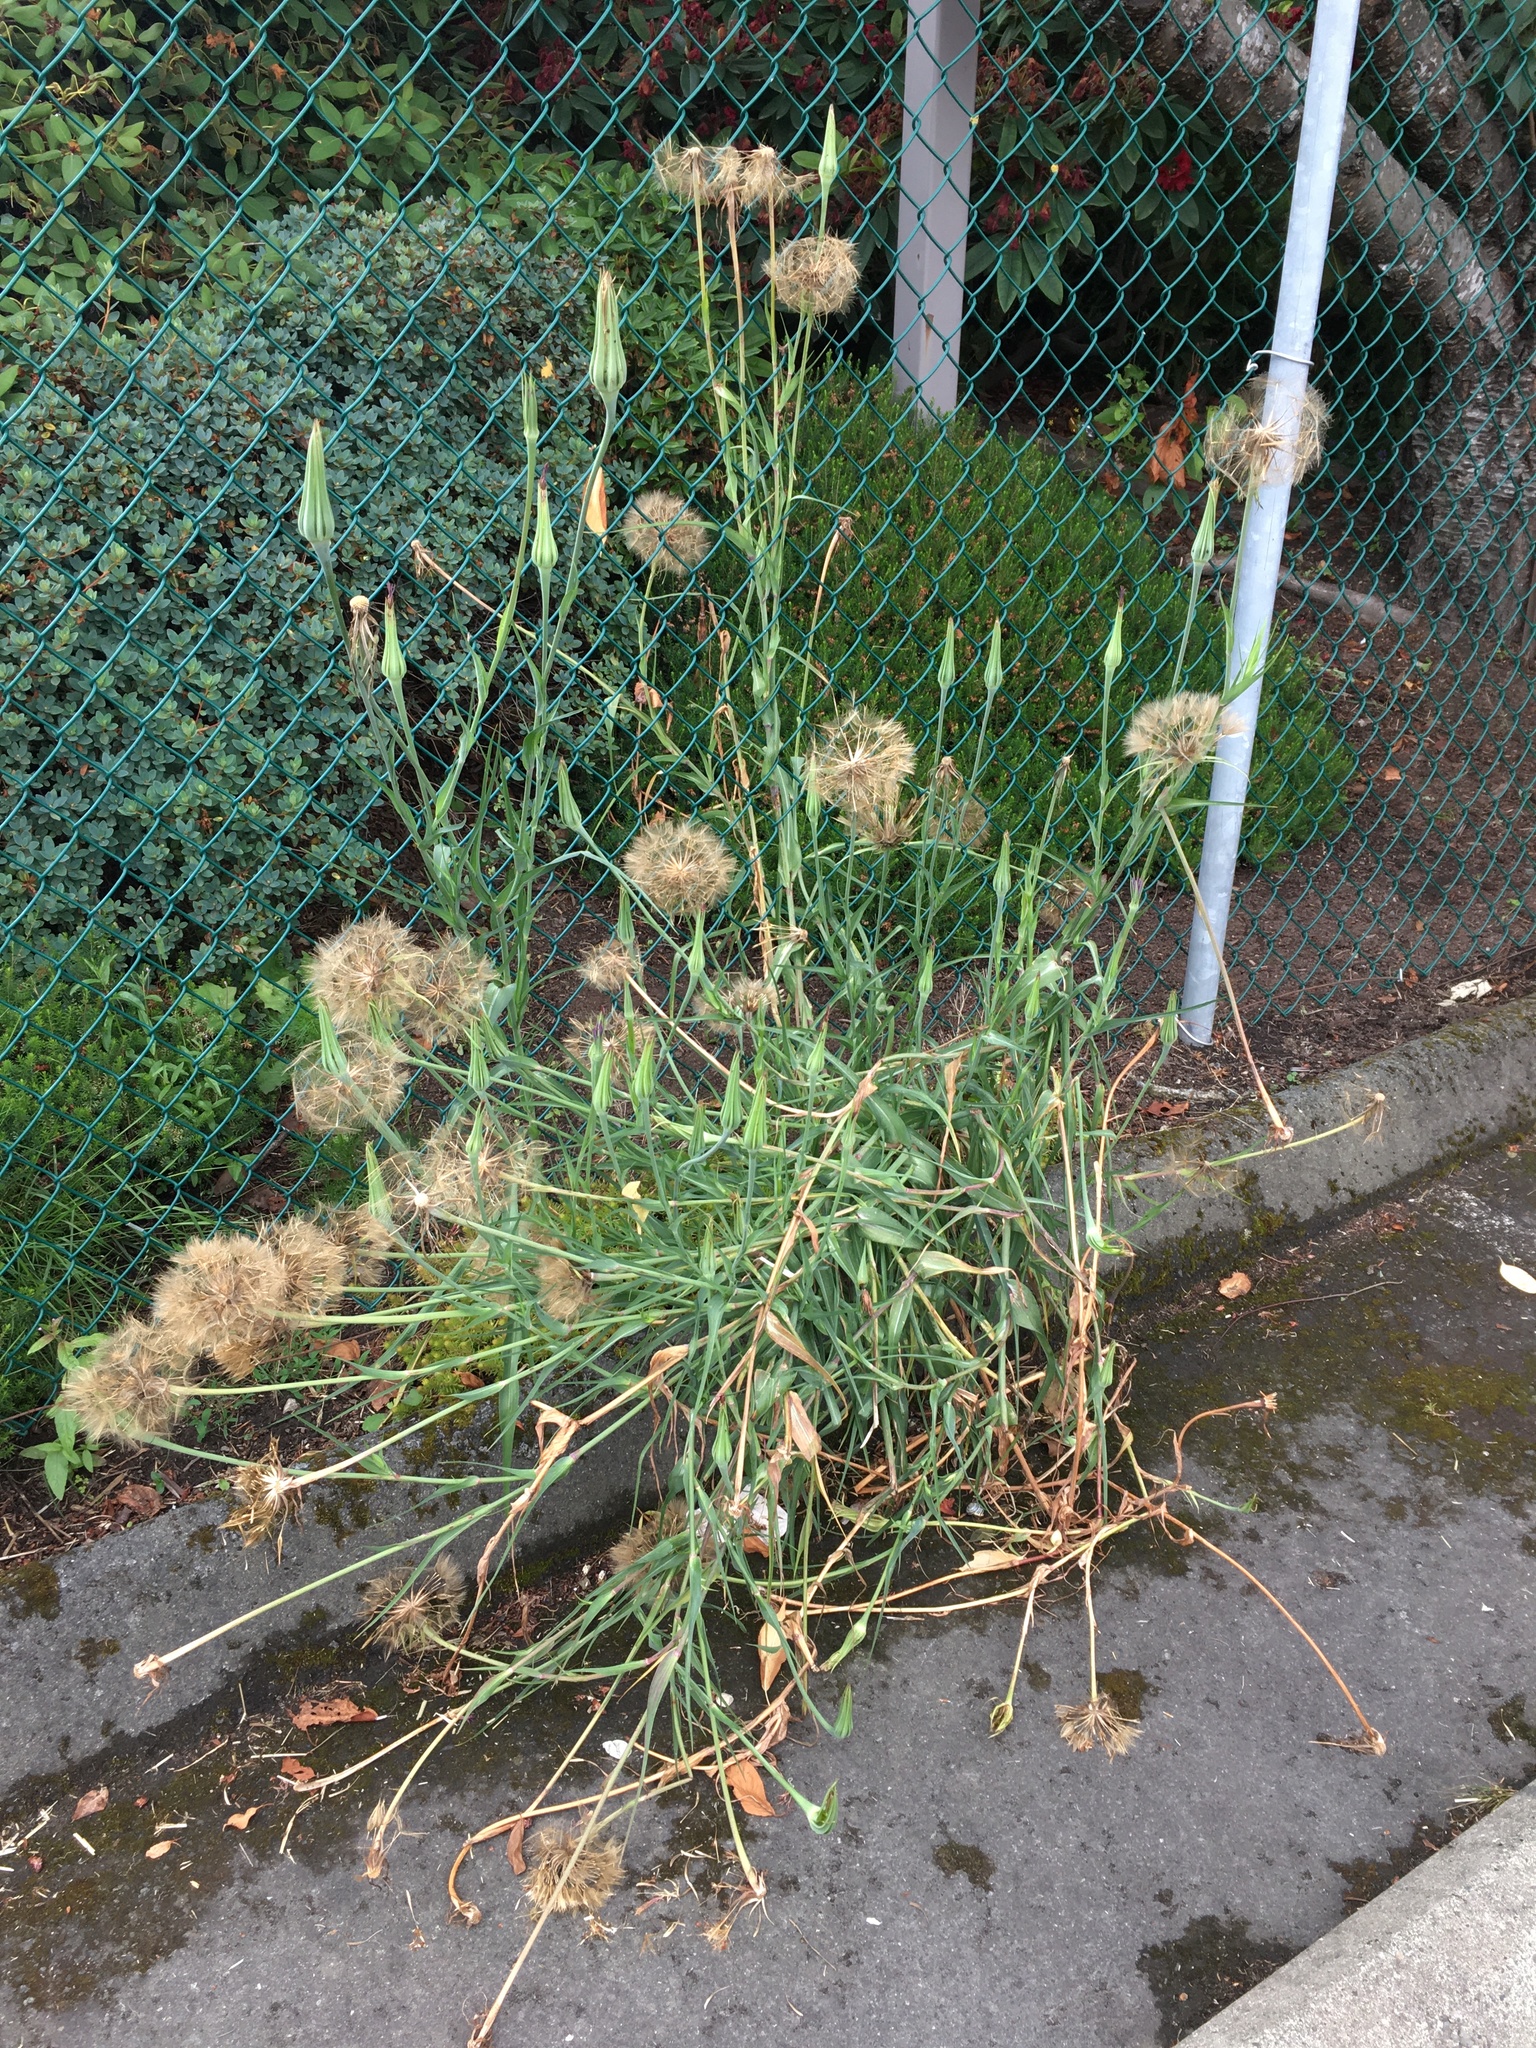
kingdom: Plantae
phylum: Tracheophyta
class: Magnoliopsida
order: Asterales
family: Asteraceae
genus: Tragopogon
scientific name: Tragopogon porrifolius
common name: Salsify
